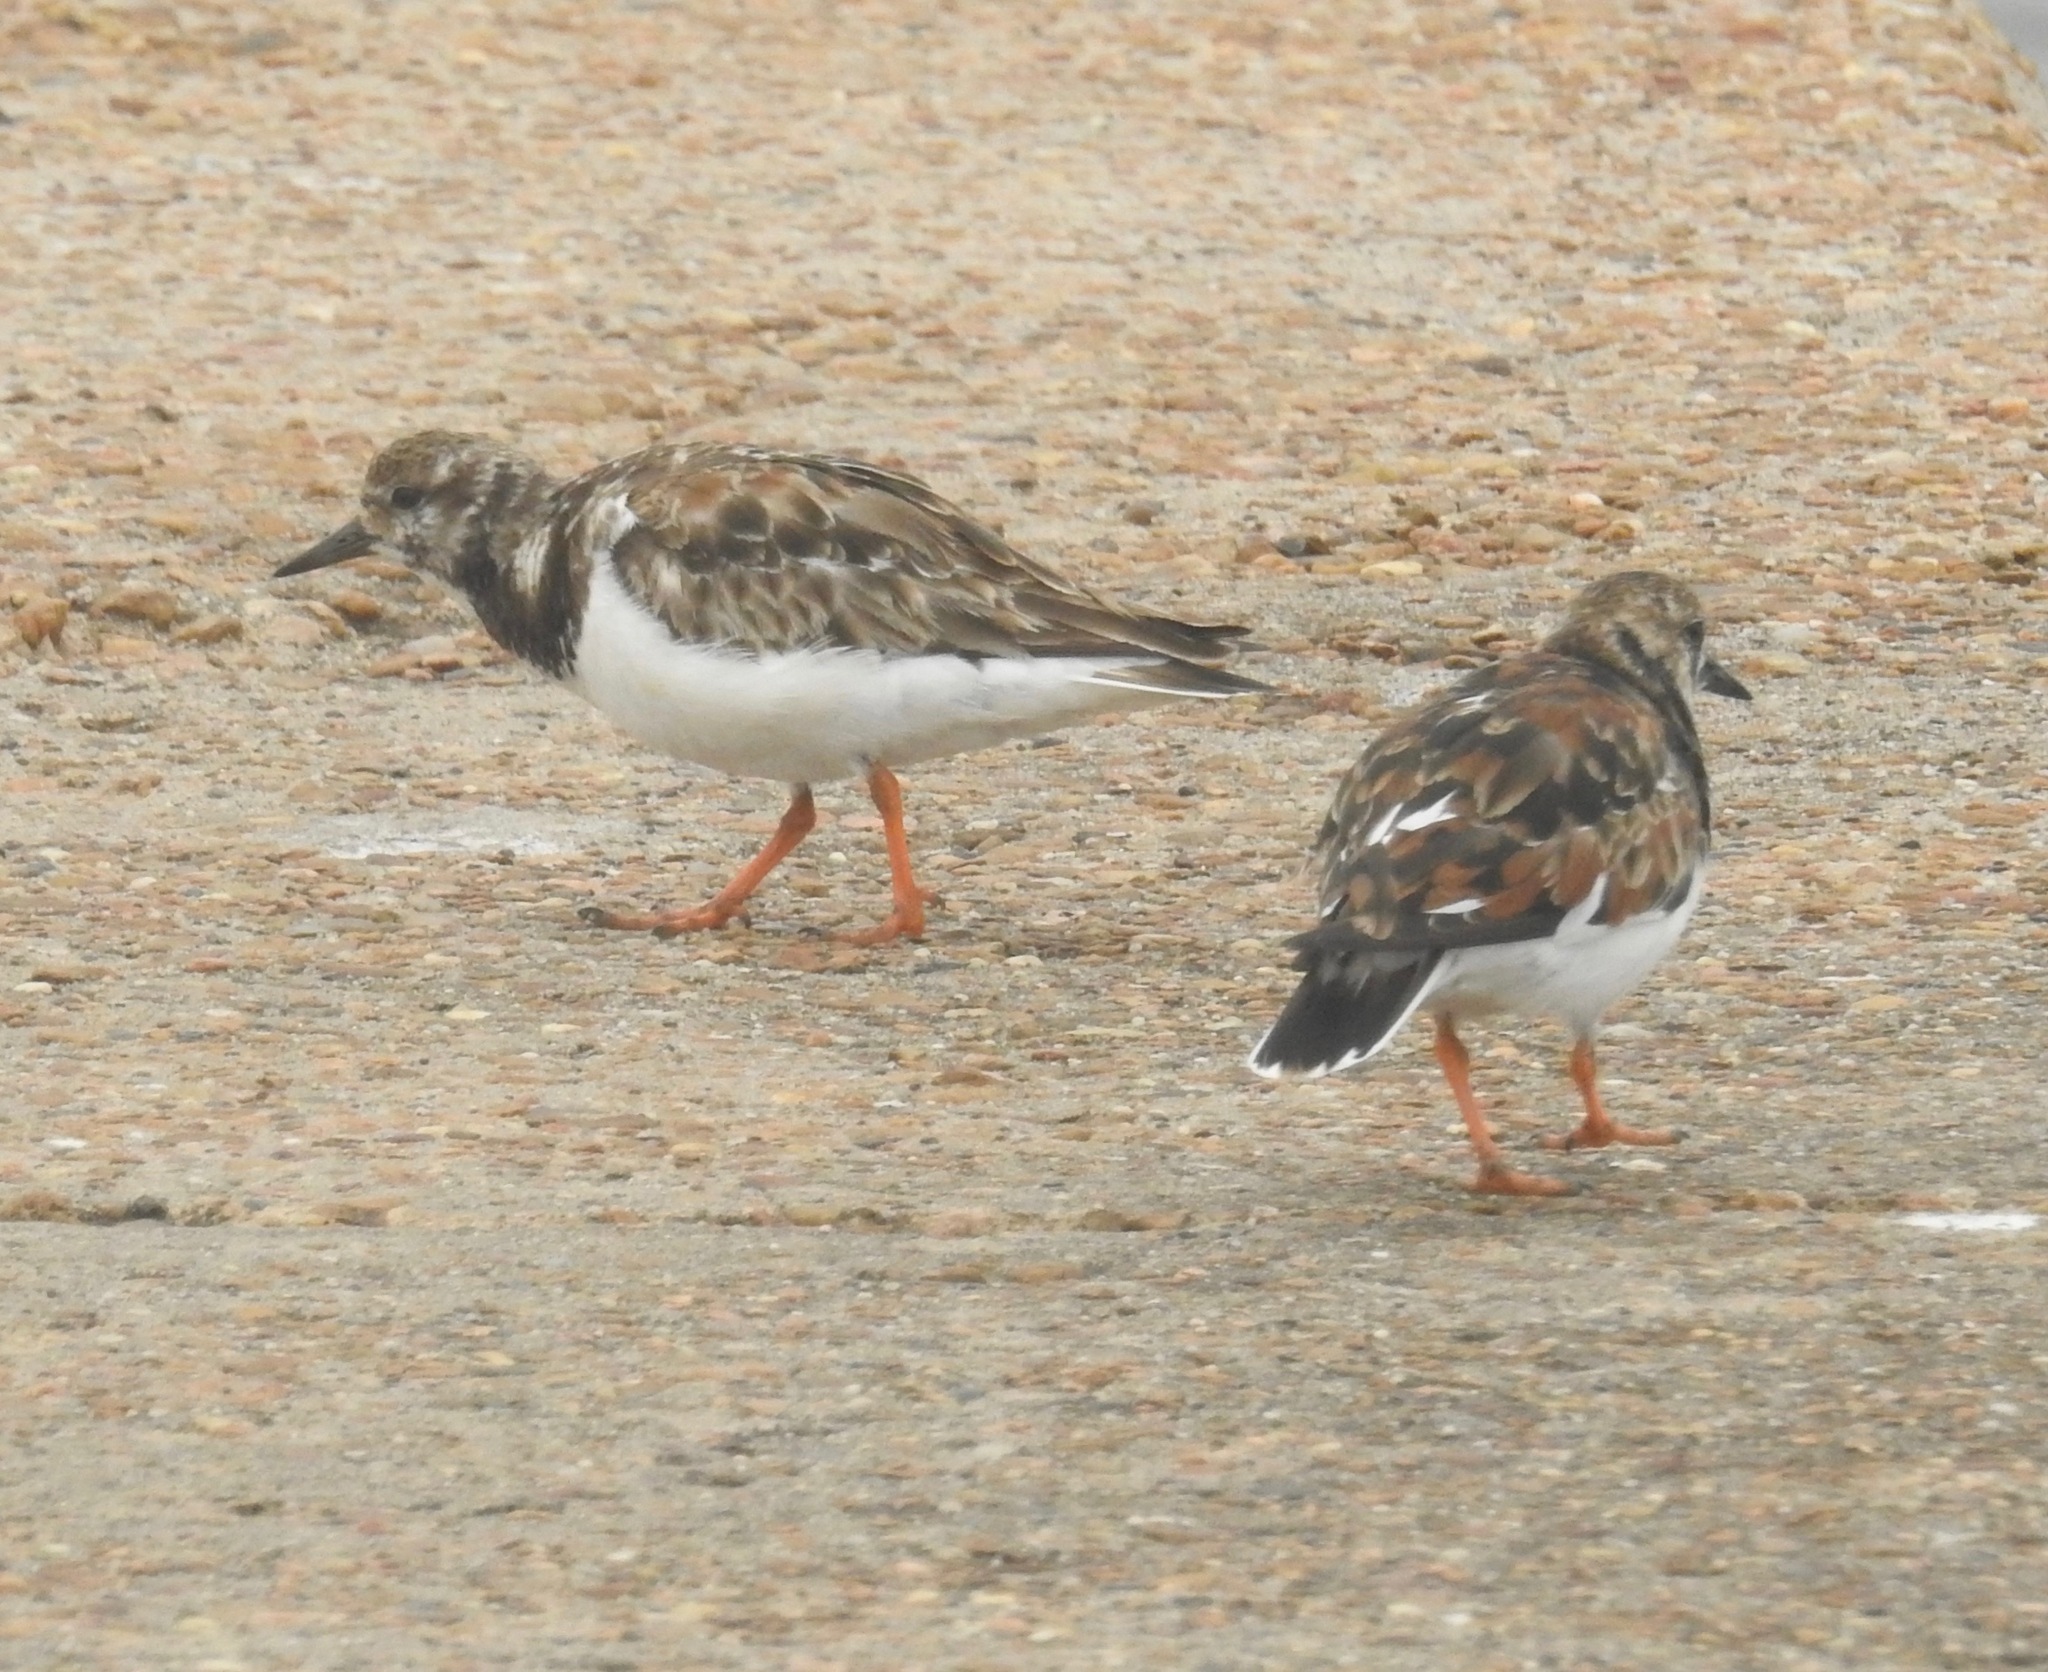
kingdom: Animalia
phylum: Chordata
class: Aves
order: Charadriiformes
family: Scolopacidae
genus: Arenaria
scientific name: Arenaria interpres
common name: Ruddy turnstone
